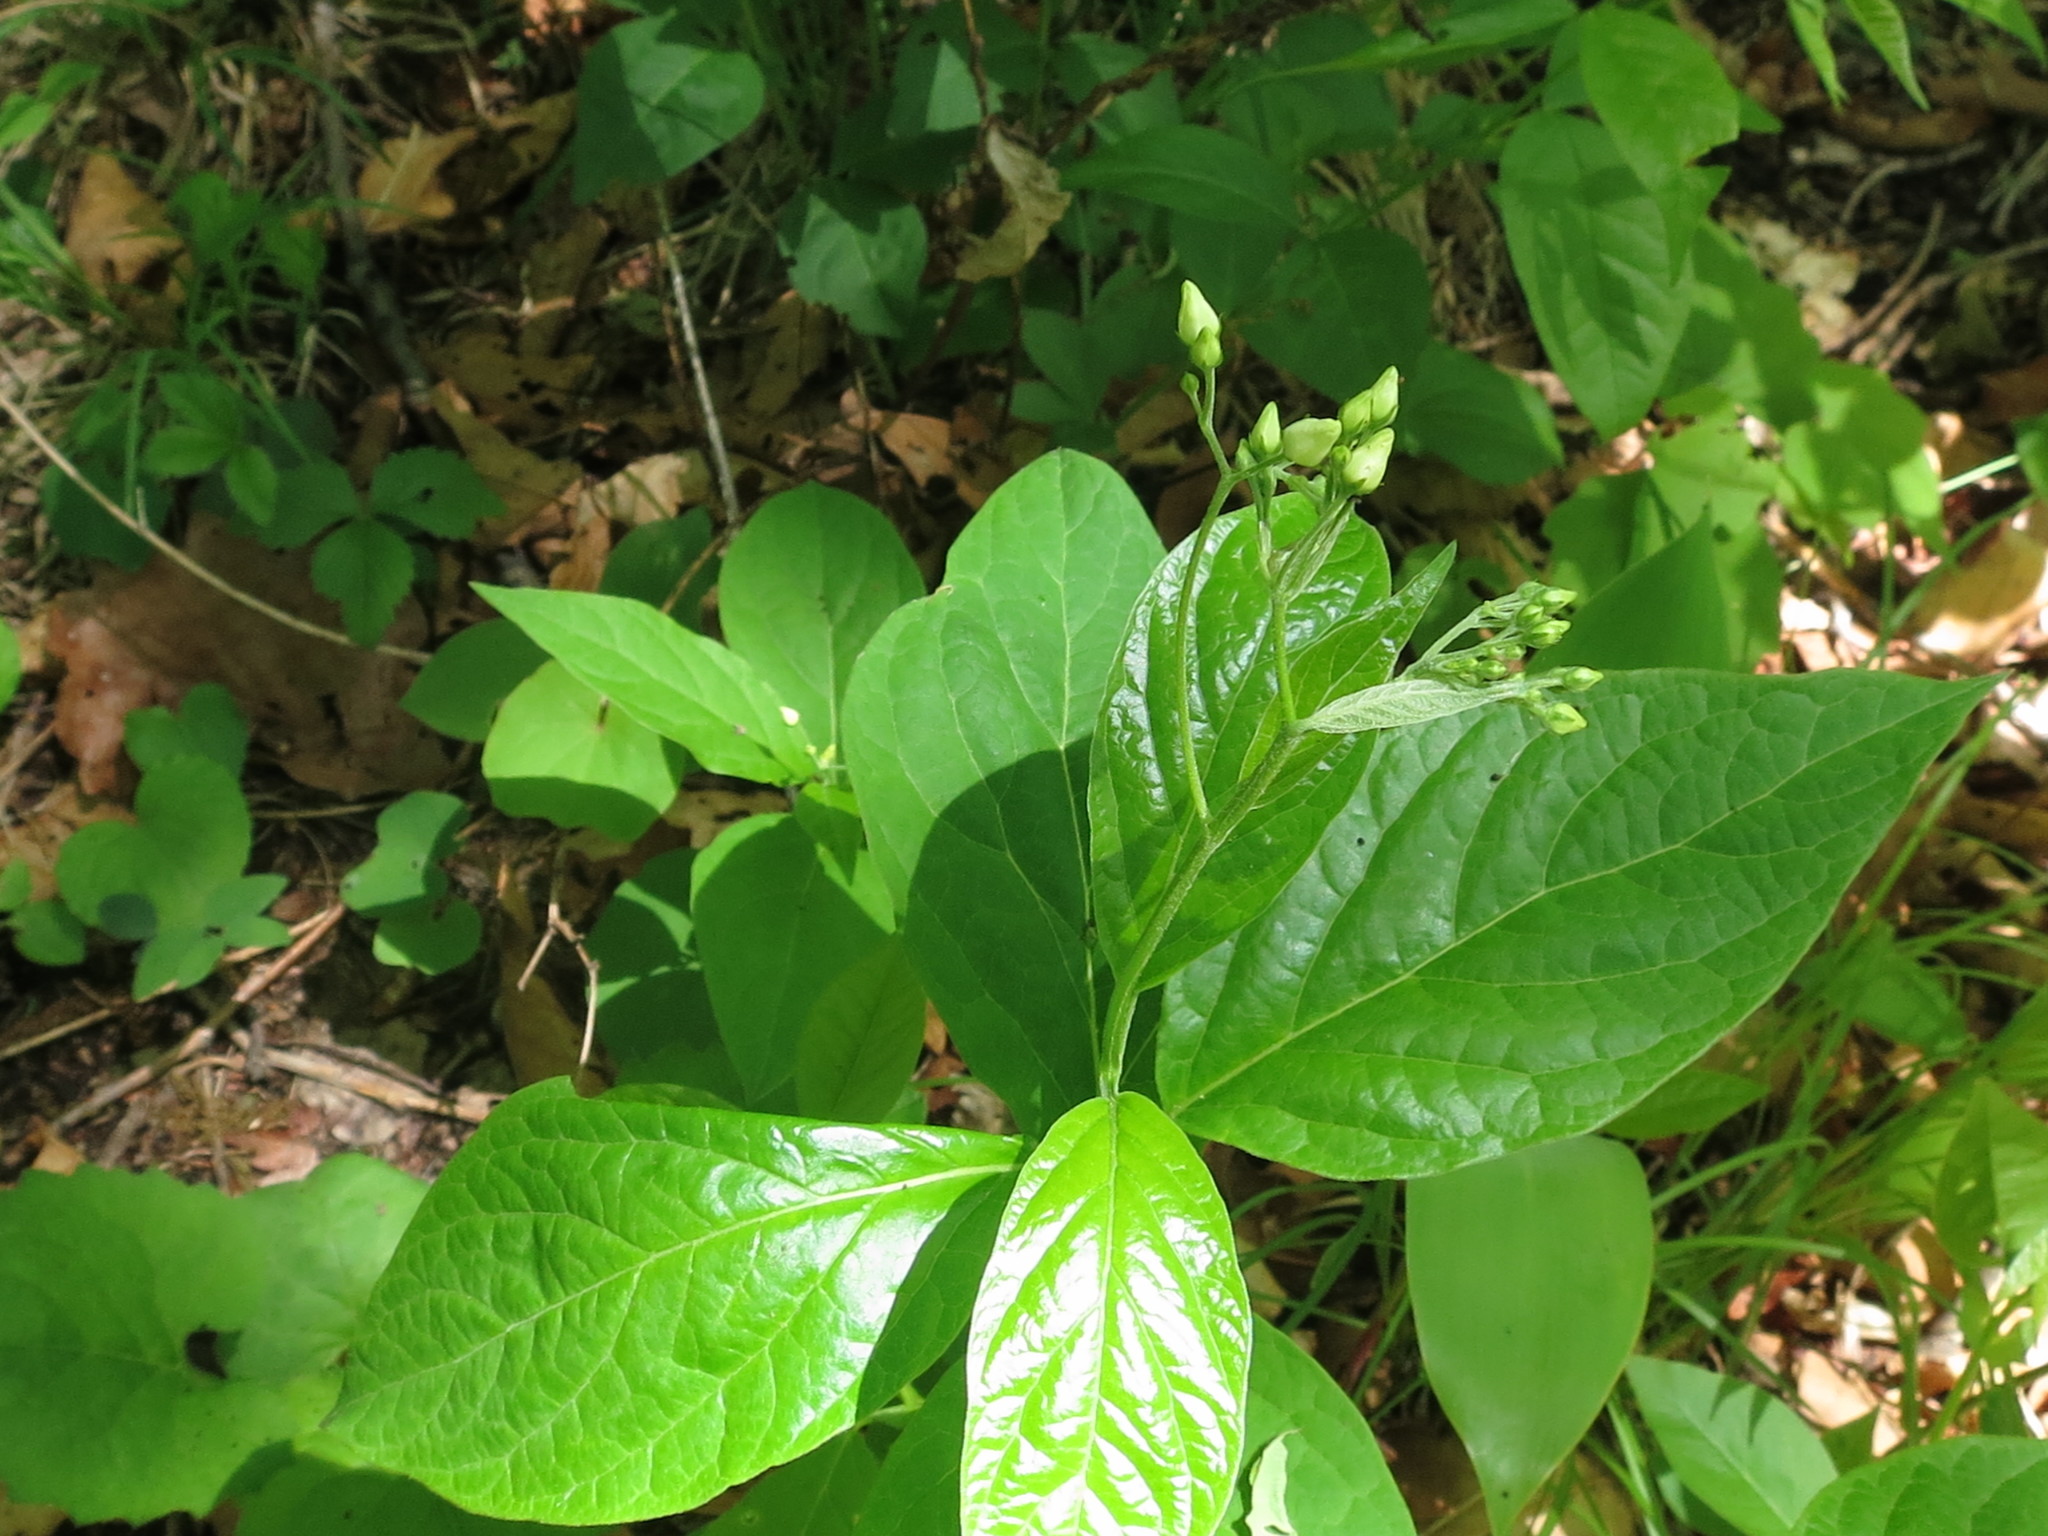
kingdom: Plantae
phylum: Tracheophyta
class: Magnoliopsida
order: Gentianales
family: Apocynaceae
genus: Vincetoxicum
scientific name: Vincetoxicum ascyrifolium
